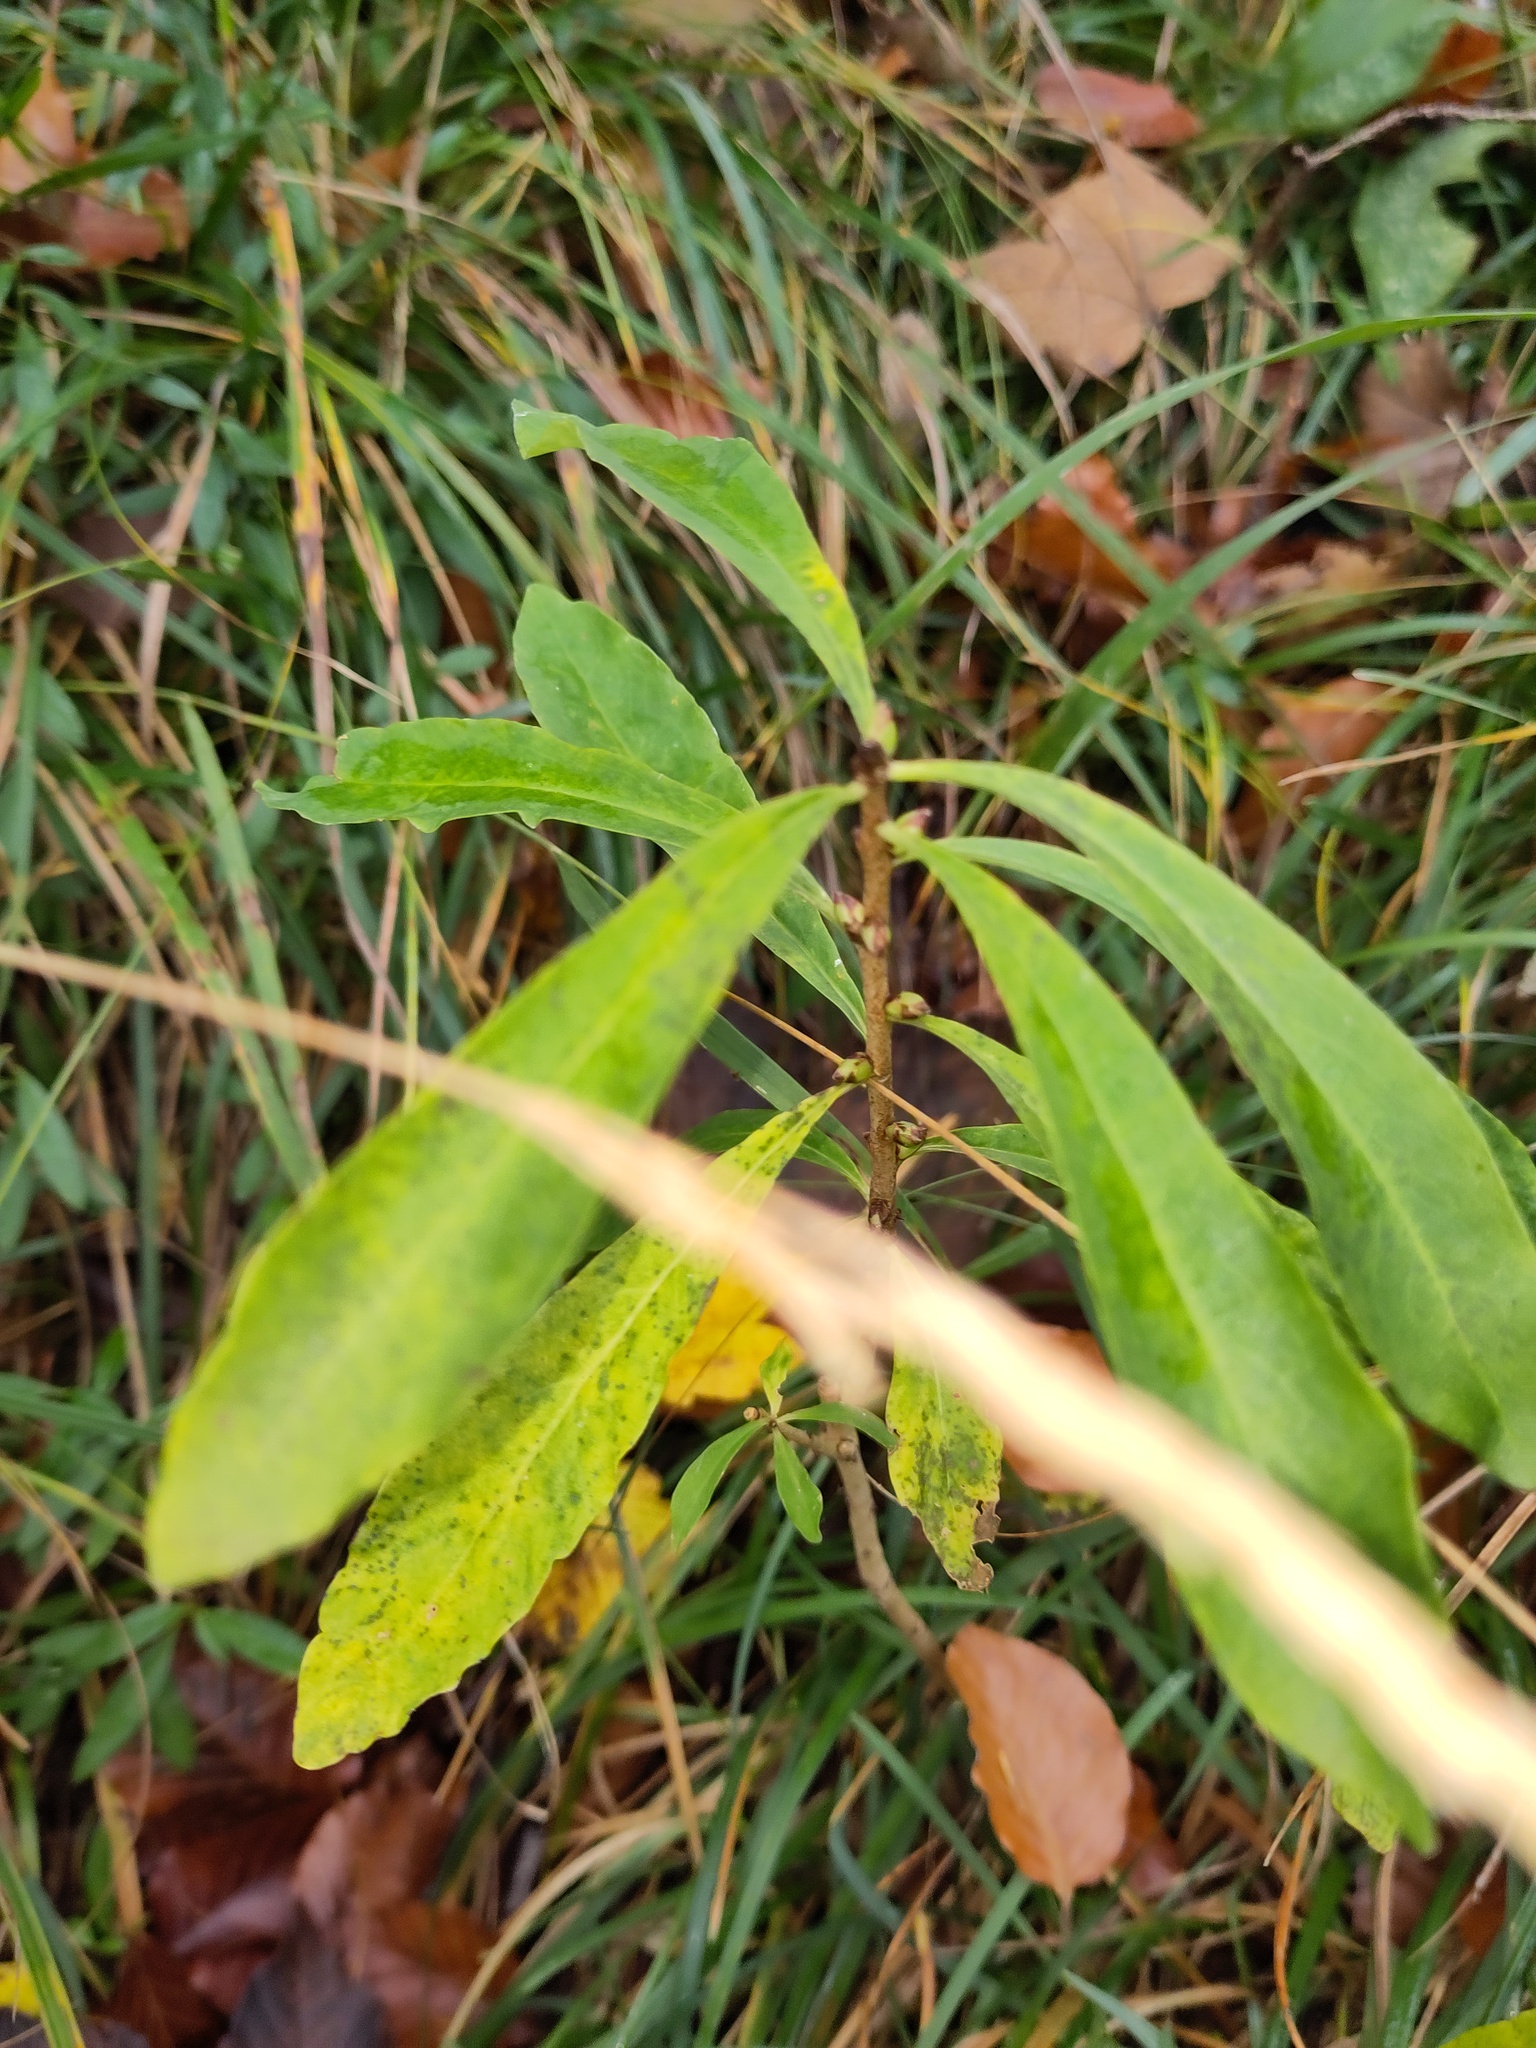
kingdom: Plantae
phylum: Tracheophyta
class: Magnoliopsida
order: Malvales
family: Thymelaeaceae
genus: Daphne
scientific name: Daphne mezereum
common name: Mezereon
